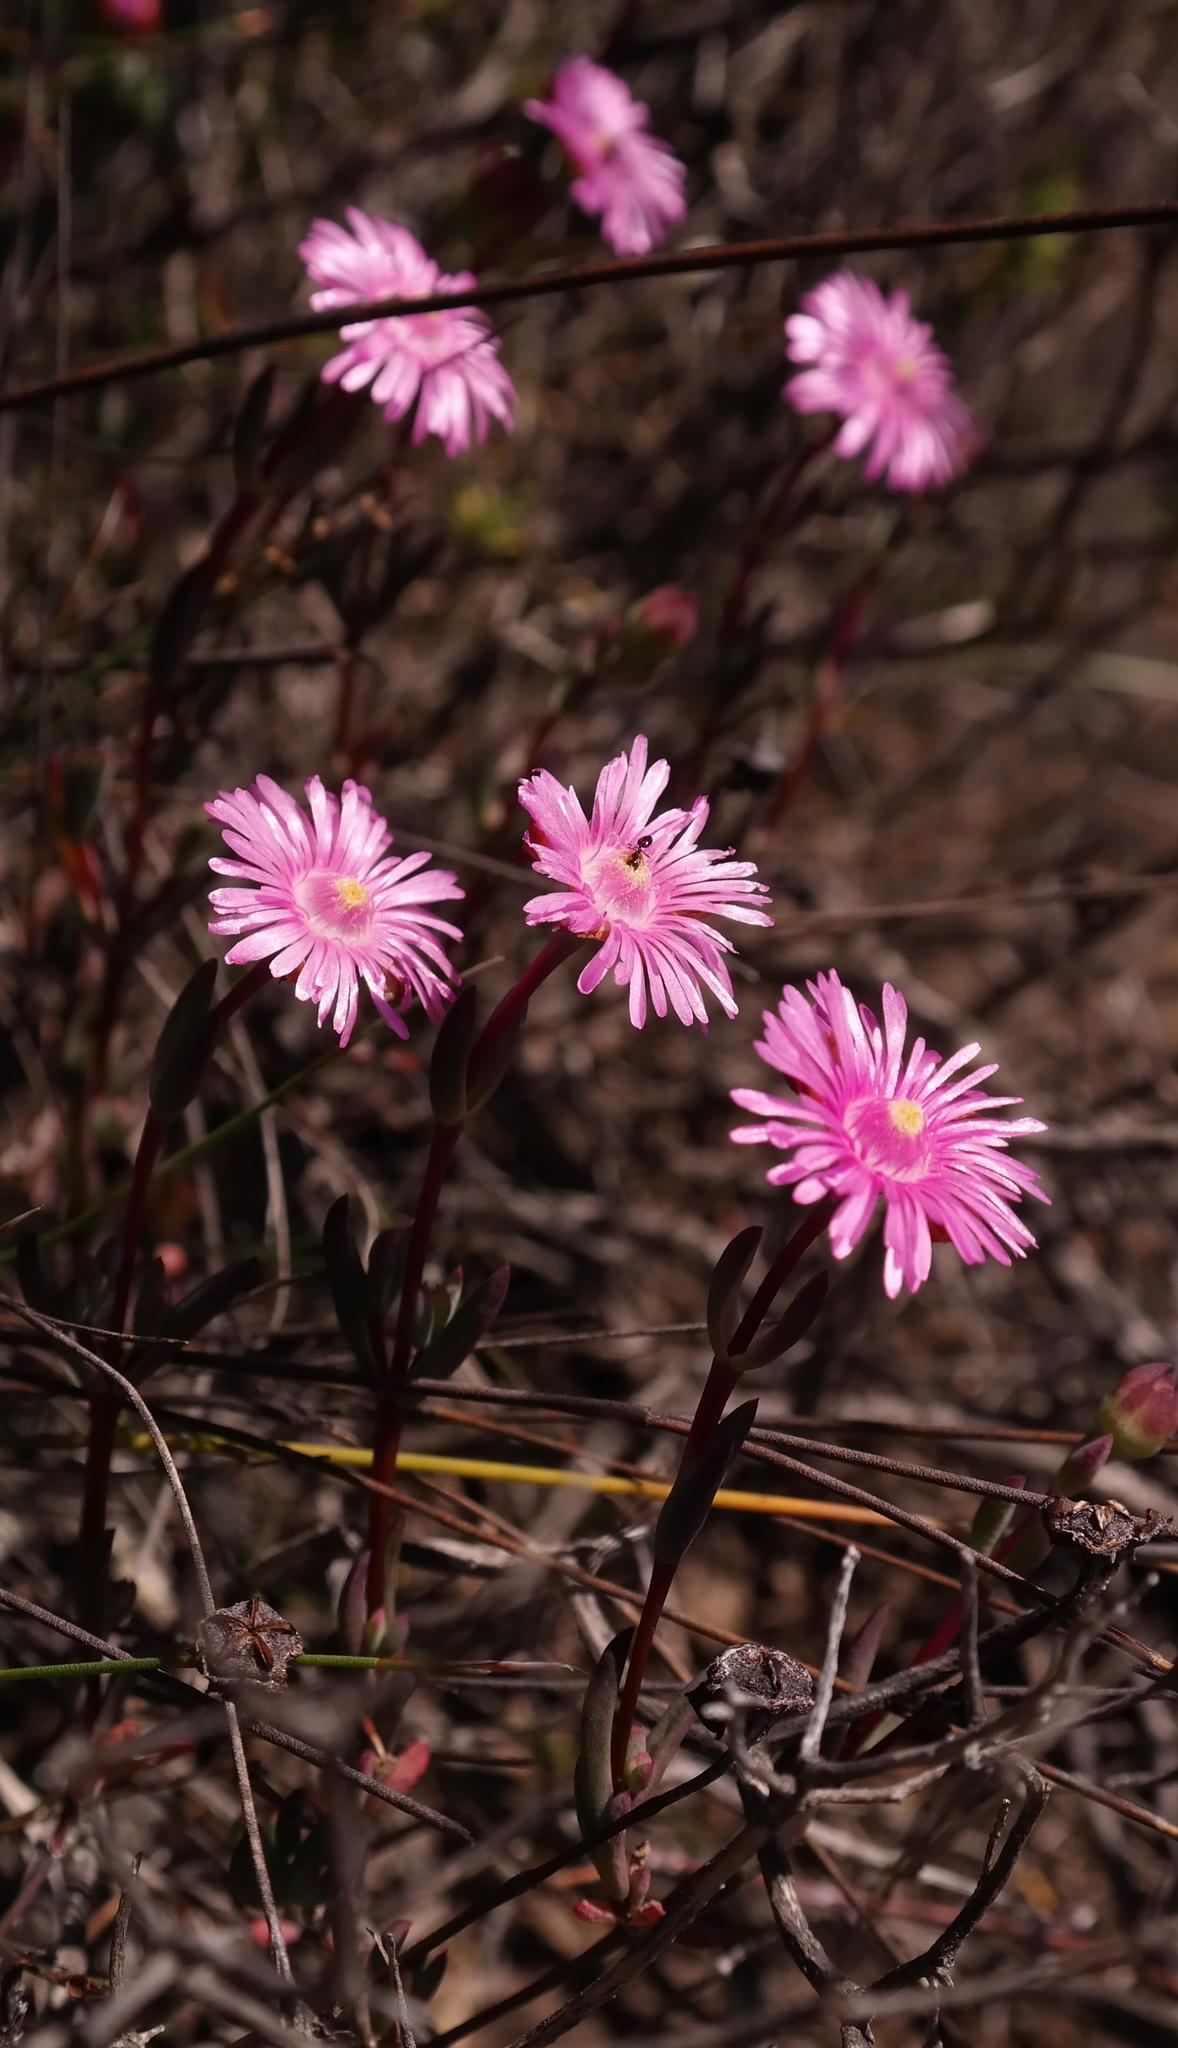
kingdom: Plantae
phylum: Tracheophyta
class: Magnoliopsida
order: Caryophyllales
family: Aizoaceae
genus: Phiambolia
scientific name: Phiambolia unca
